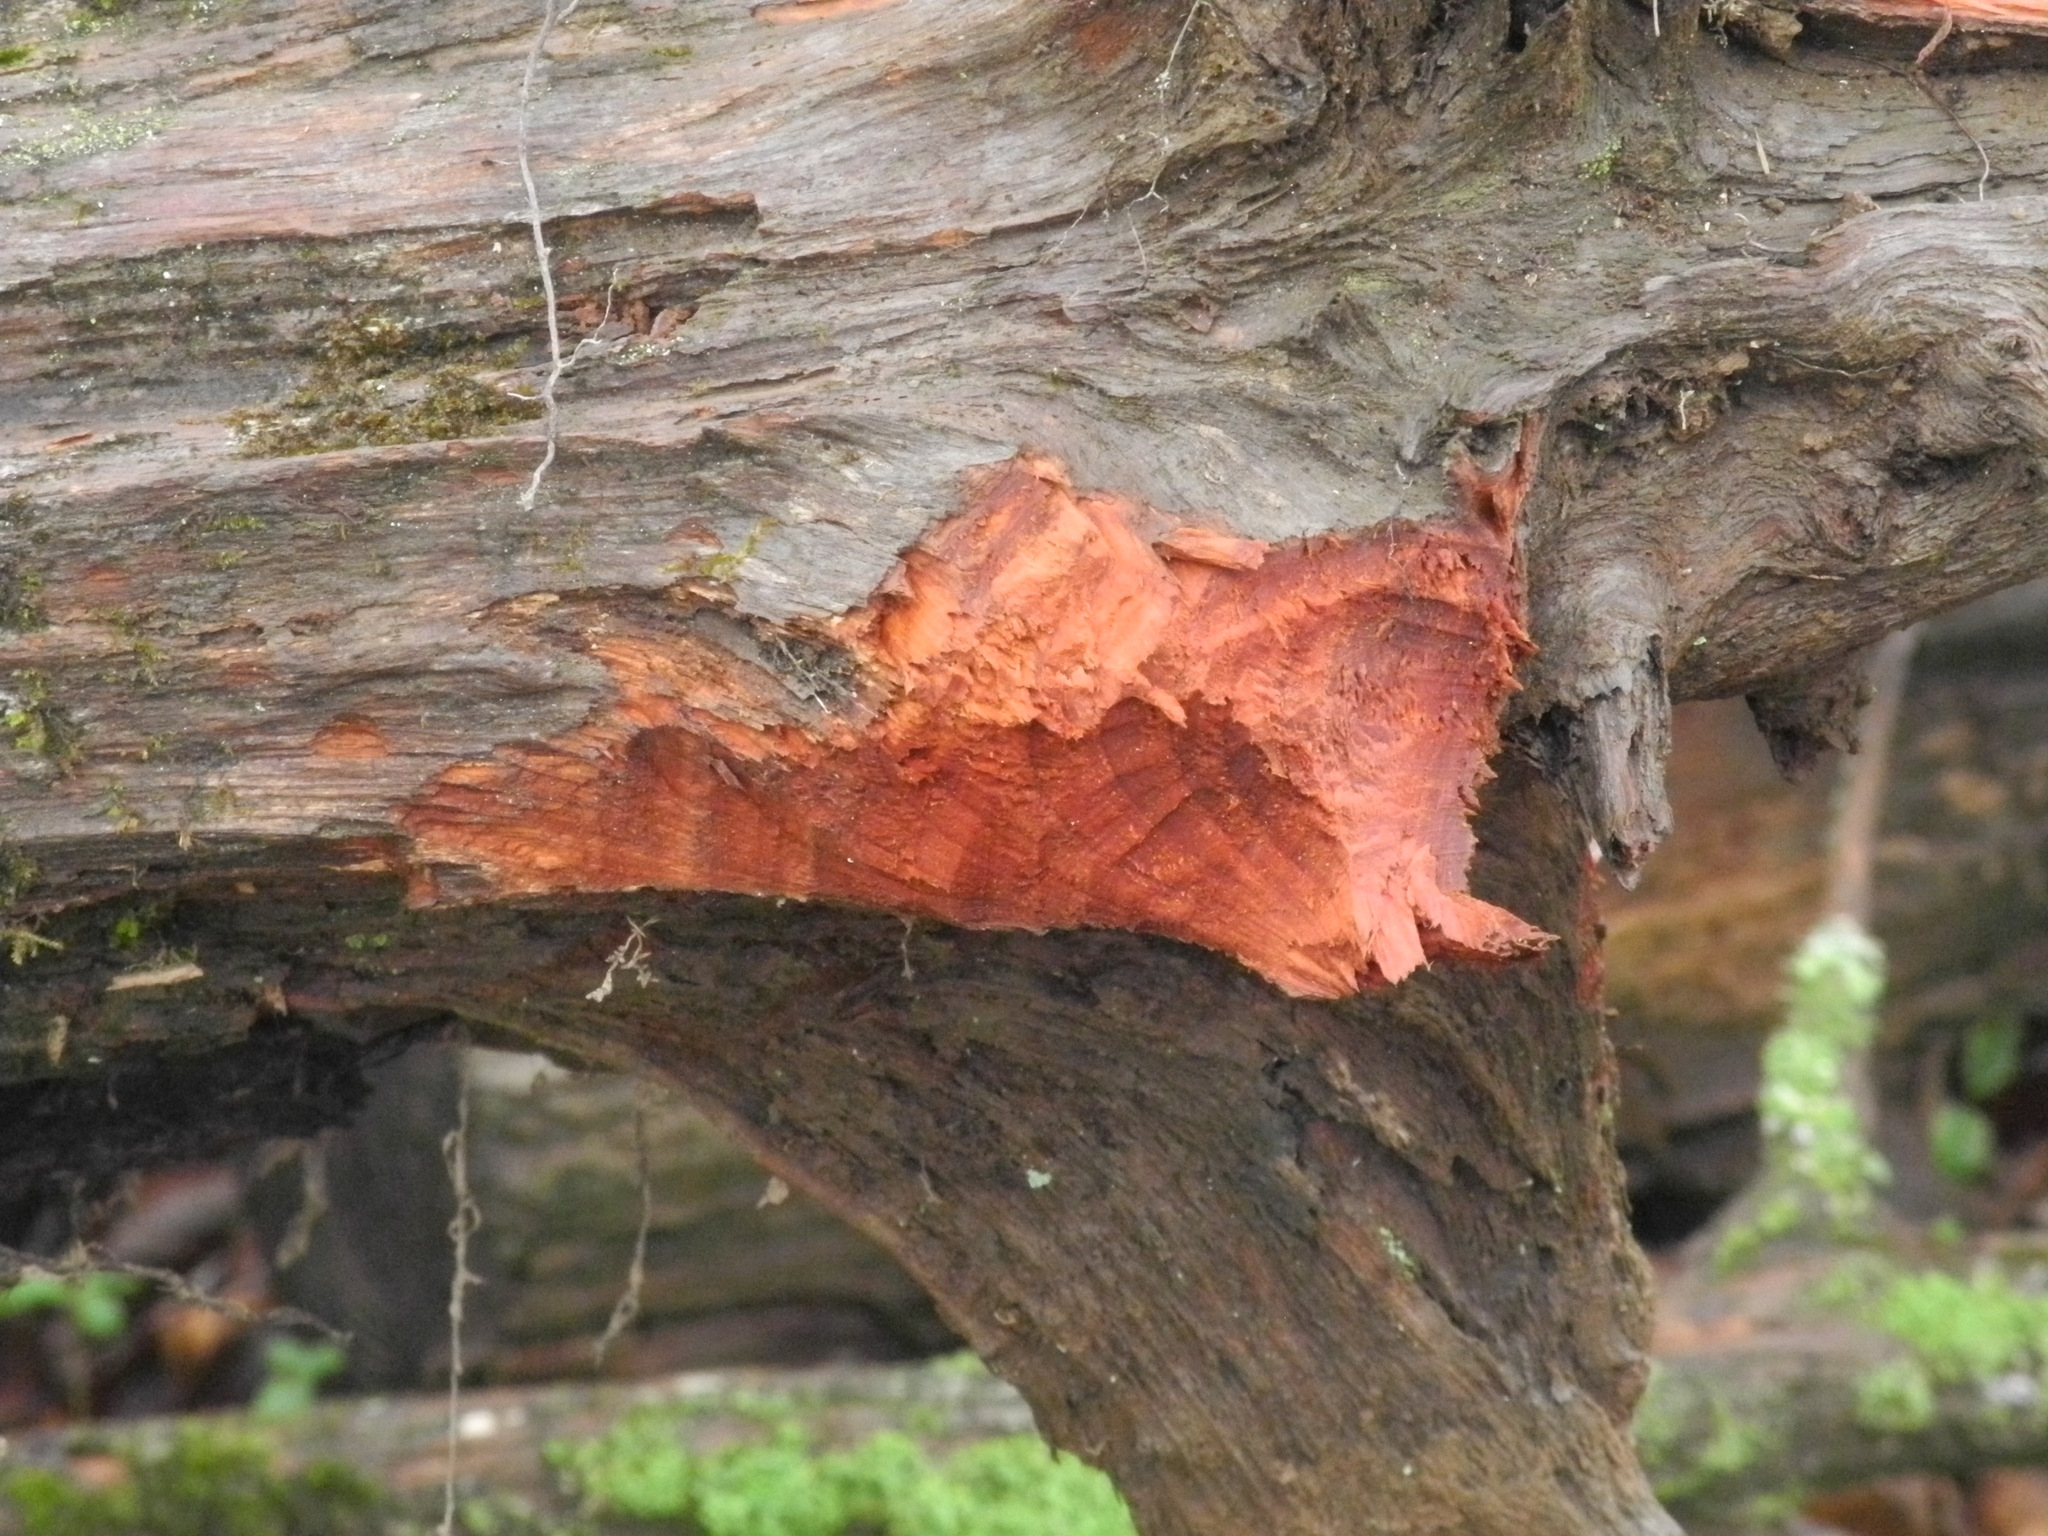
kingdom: Animalia
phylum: Chordata
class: Mammalia
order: Rodentia
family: Castoridae
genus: Castor
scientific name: Castor canadensis
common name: American beaver
